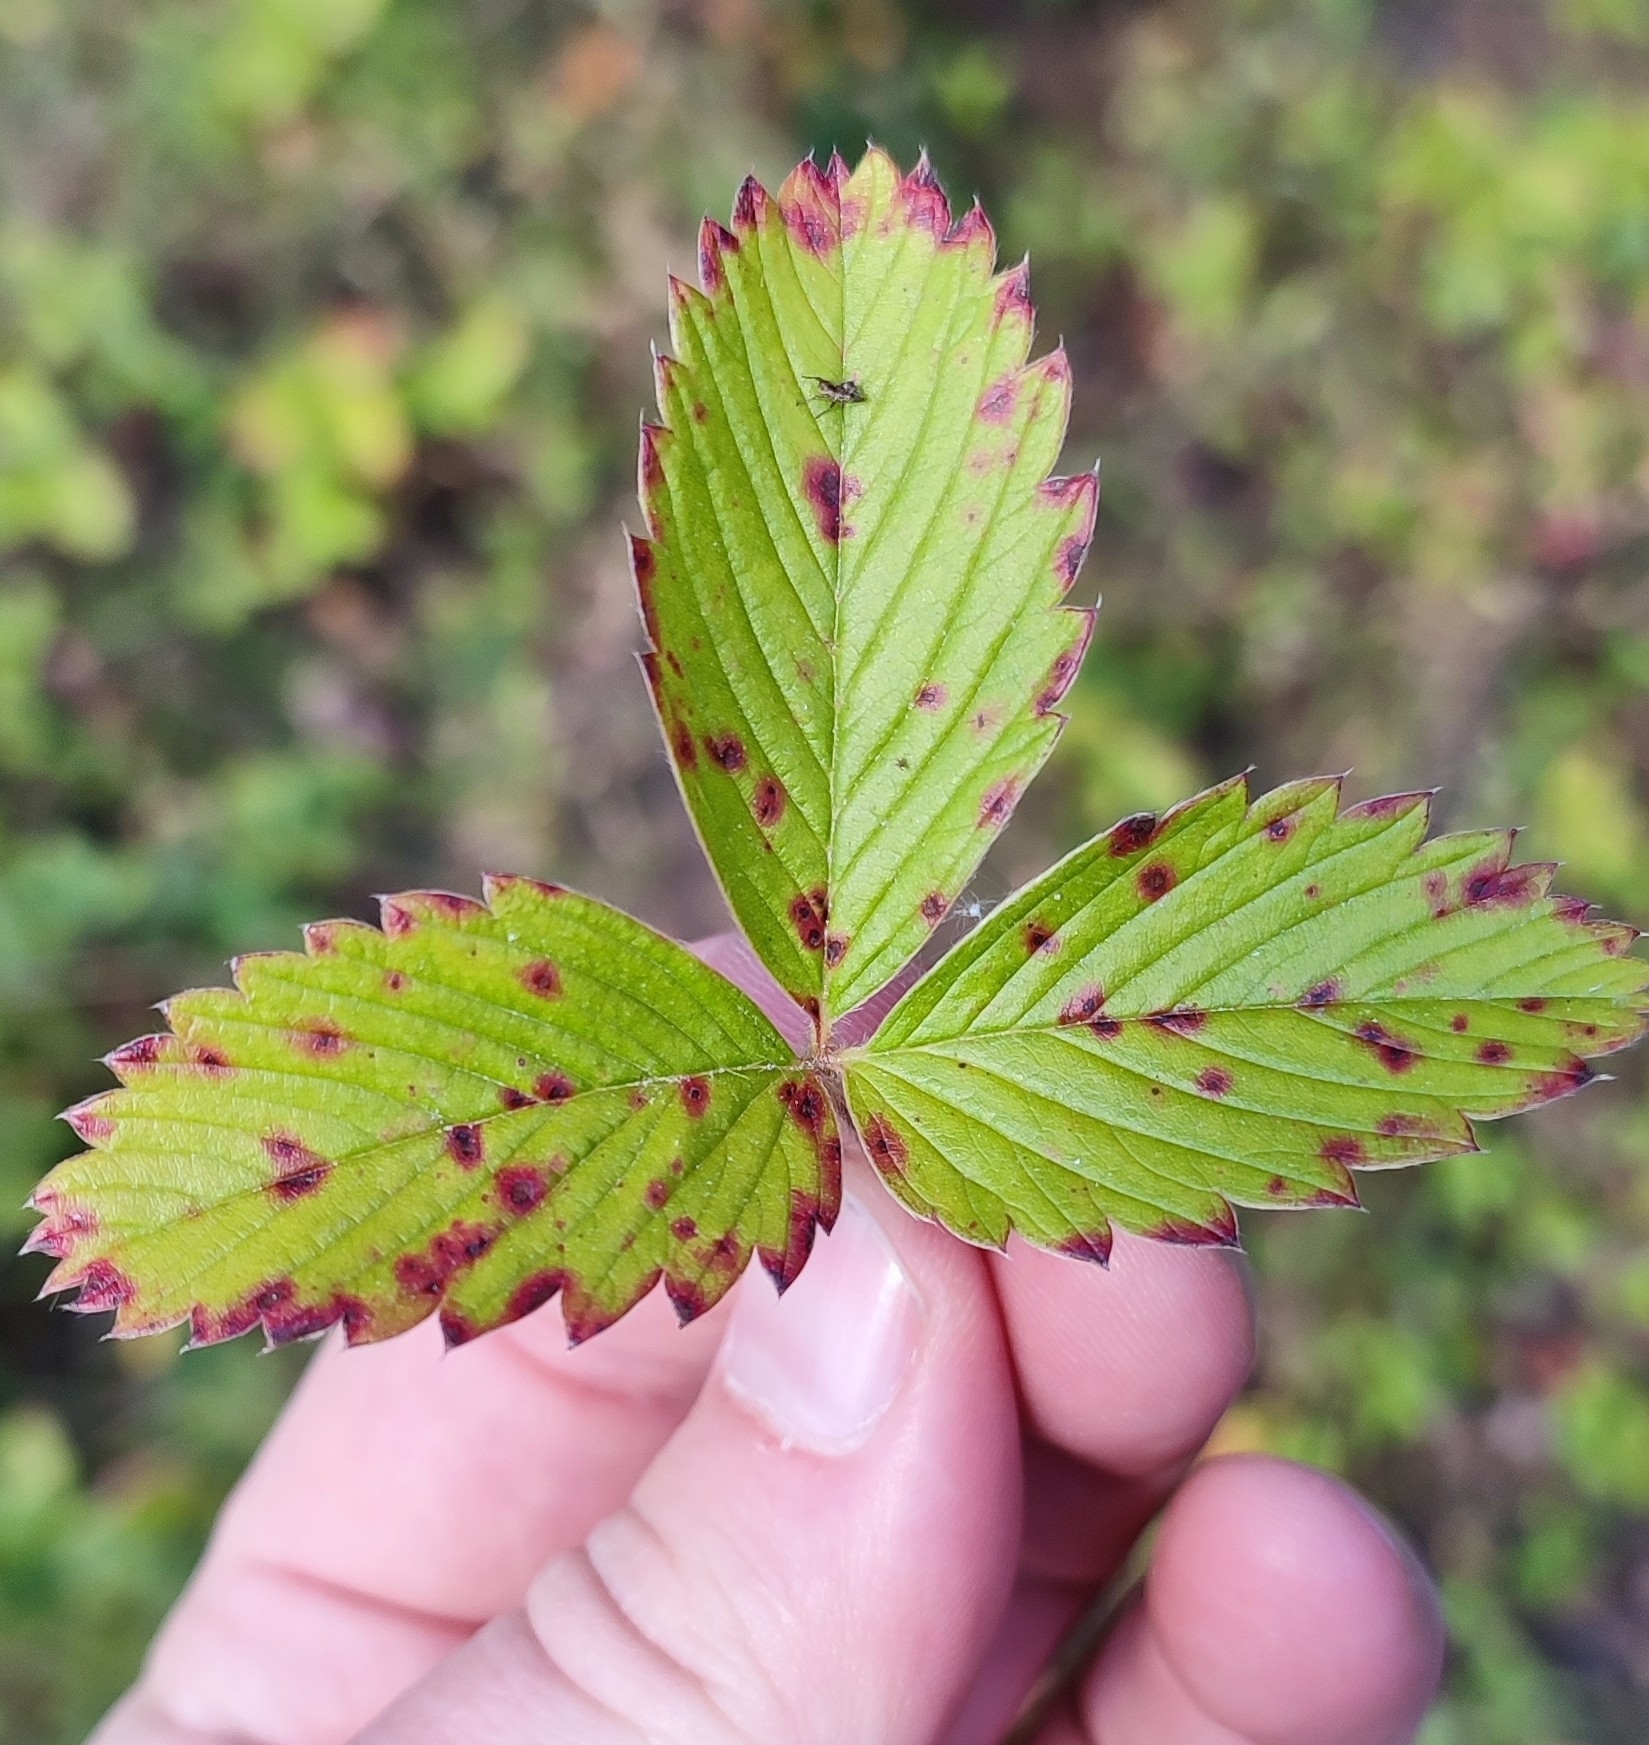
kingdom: Plantae
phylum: Tracheophyta
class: Magnoliopsida
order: Rosales
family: Rosaceae
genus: Fragaria
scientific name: Fragaria viridis
